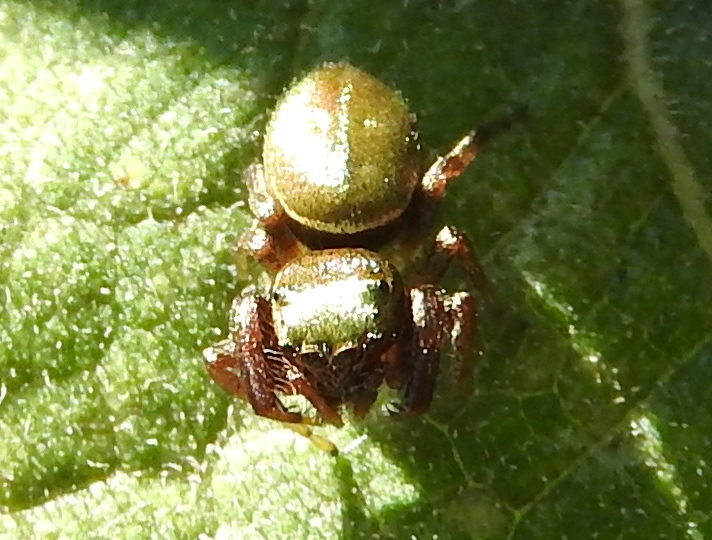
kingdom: Animalia
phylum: Arthropoda
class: Arachnida
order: Araneae
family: Salticidae
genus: Sassacus
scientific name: Sassacus
